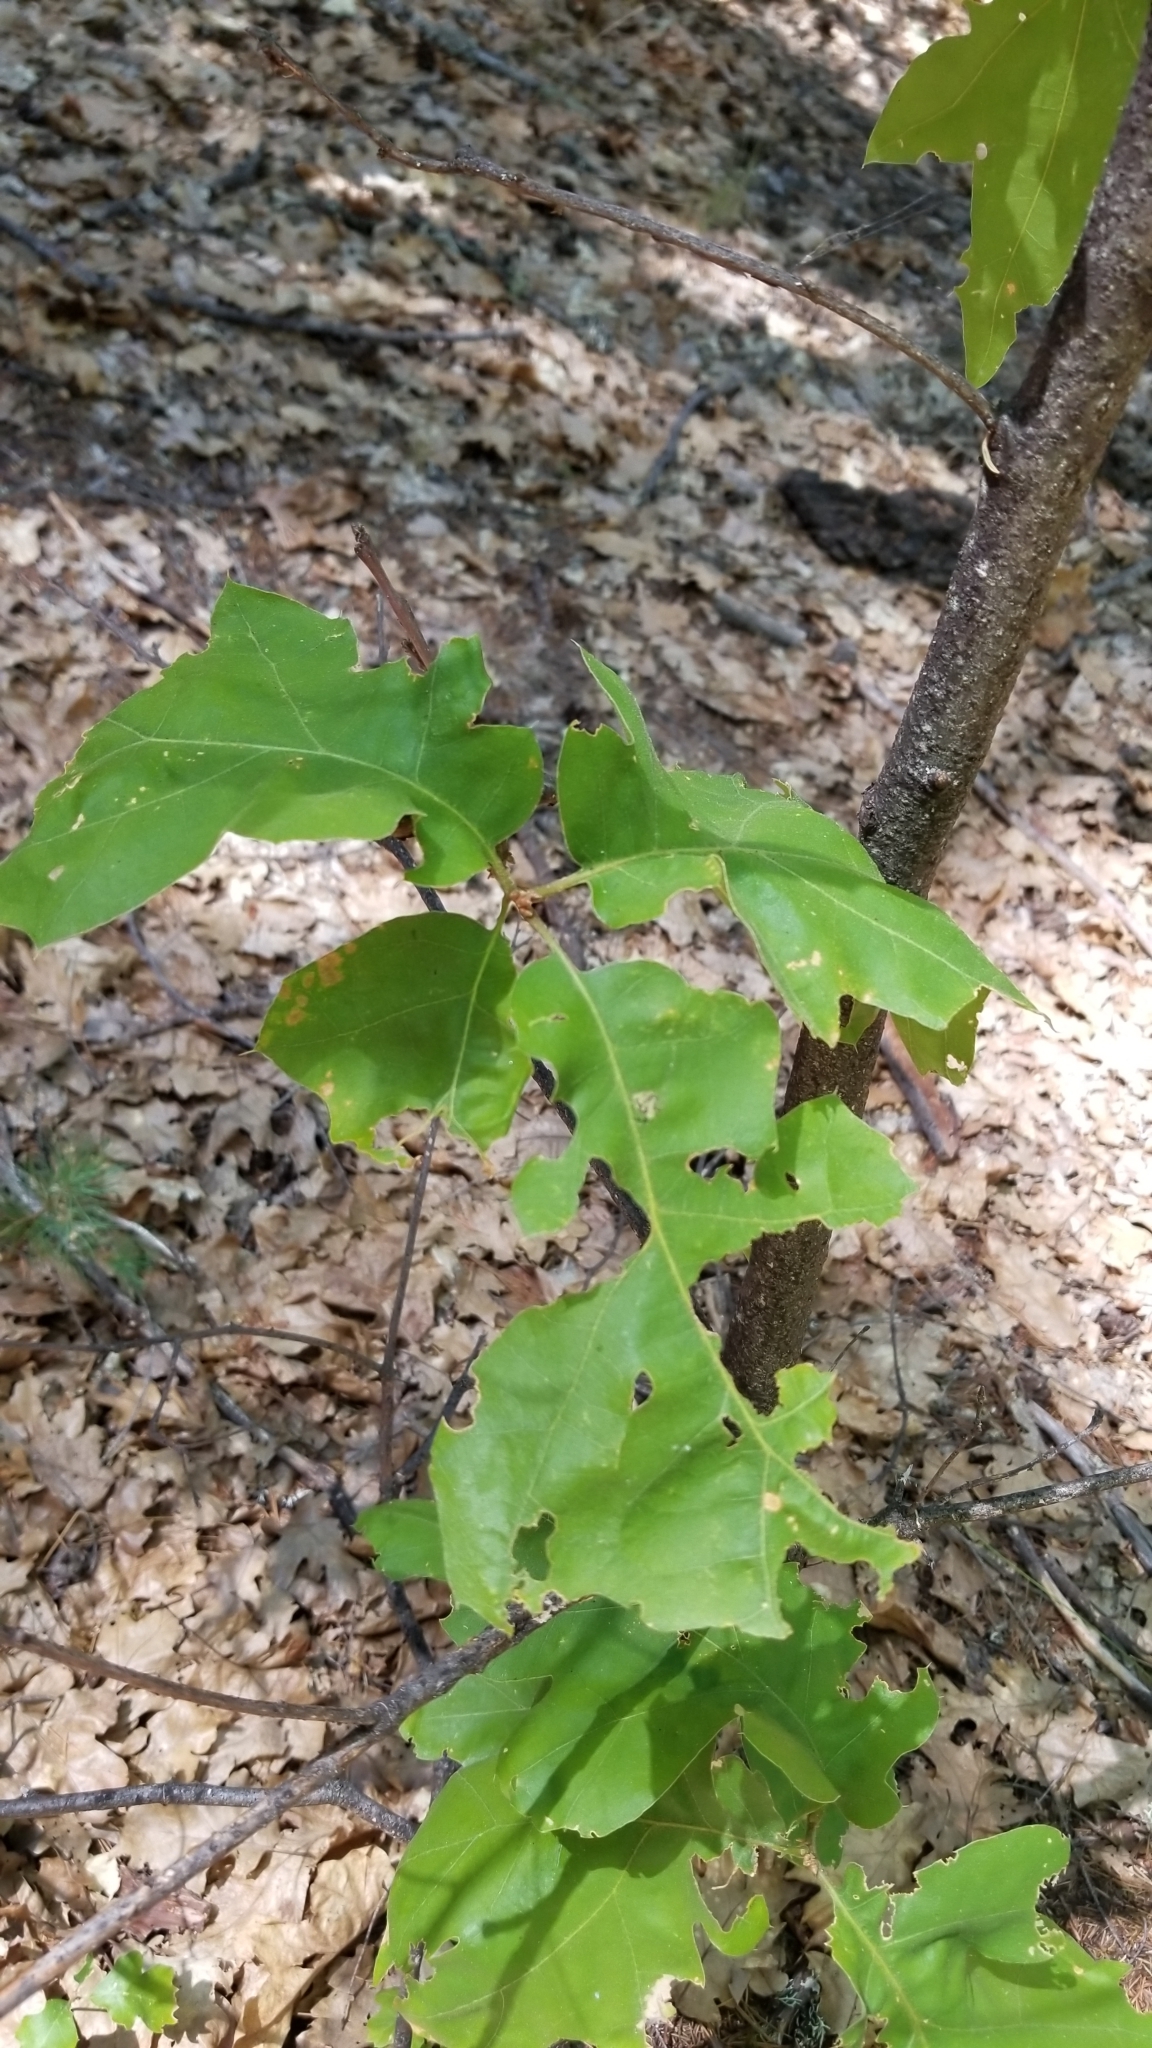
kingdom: Plantae
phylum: Tracheophyta
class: Magnoliopsida
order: Fagales
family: Fagaceae
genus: Quercus
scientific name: Quercus kelloggii
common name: California black oak
